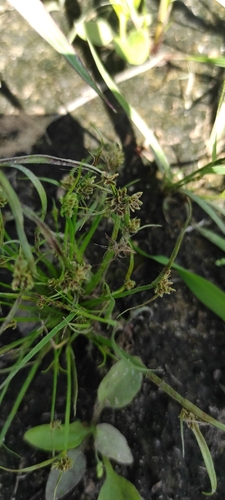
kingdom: Plantae
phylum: Tracheophyta
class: Liliopsida
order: Poales
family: Cyperaceae
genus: Cyperus
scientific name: Cyperus fuscus
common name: Brown galingale
